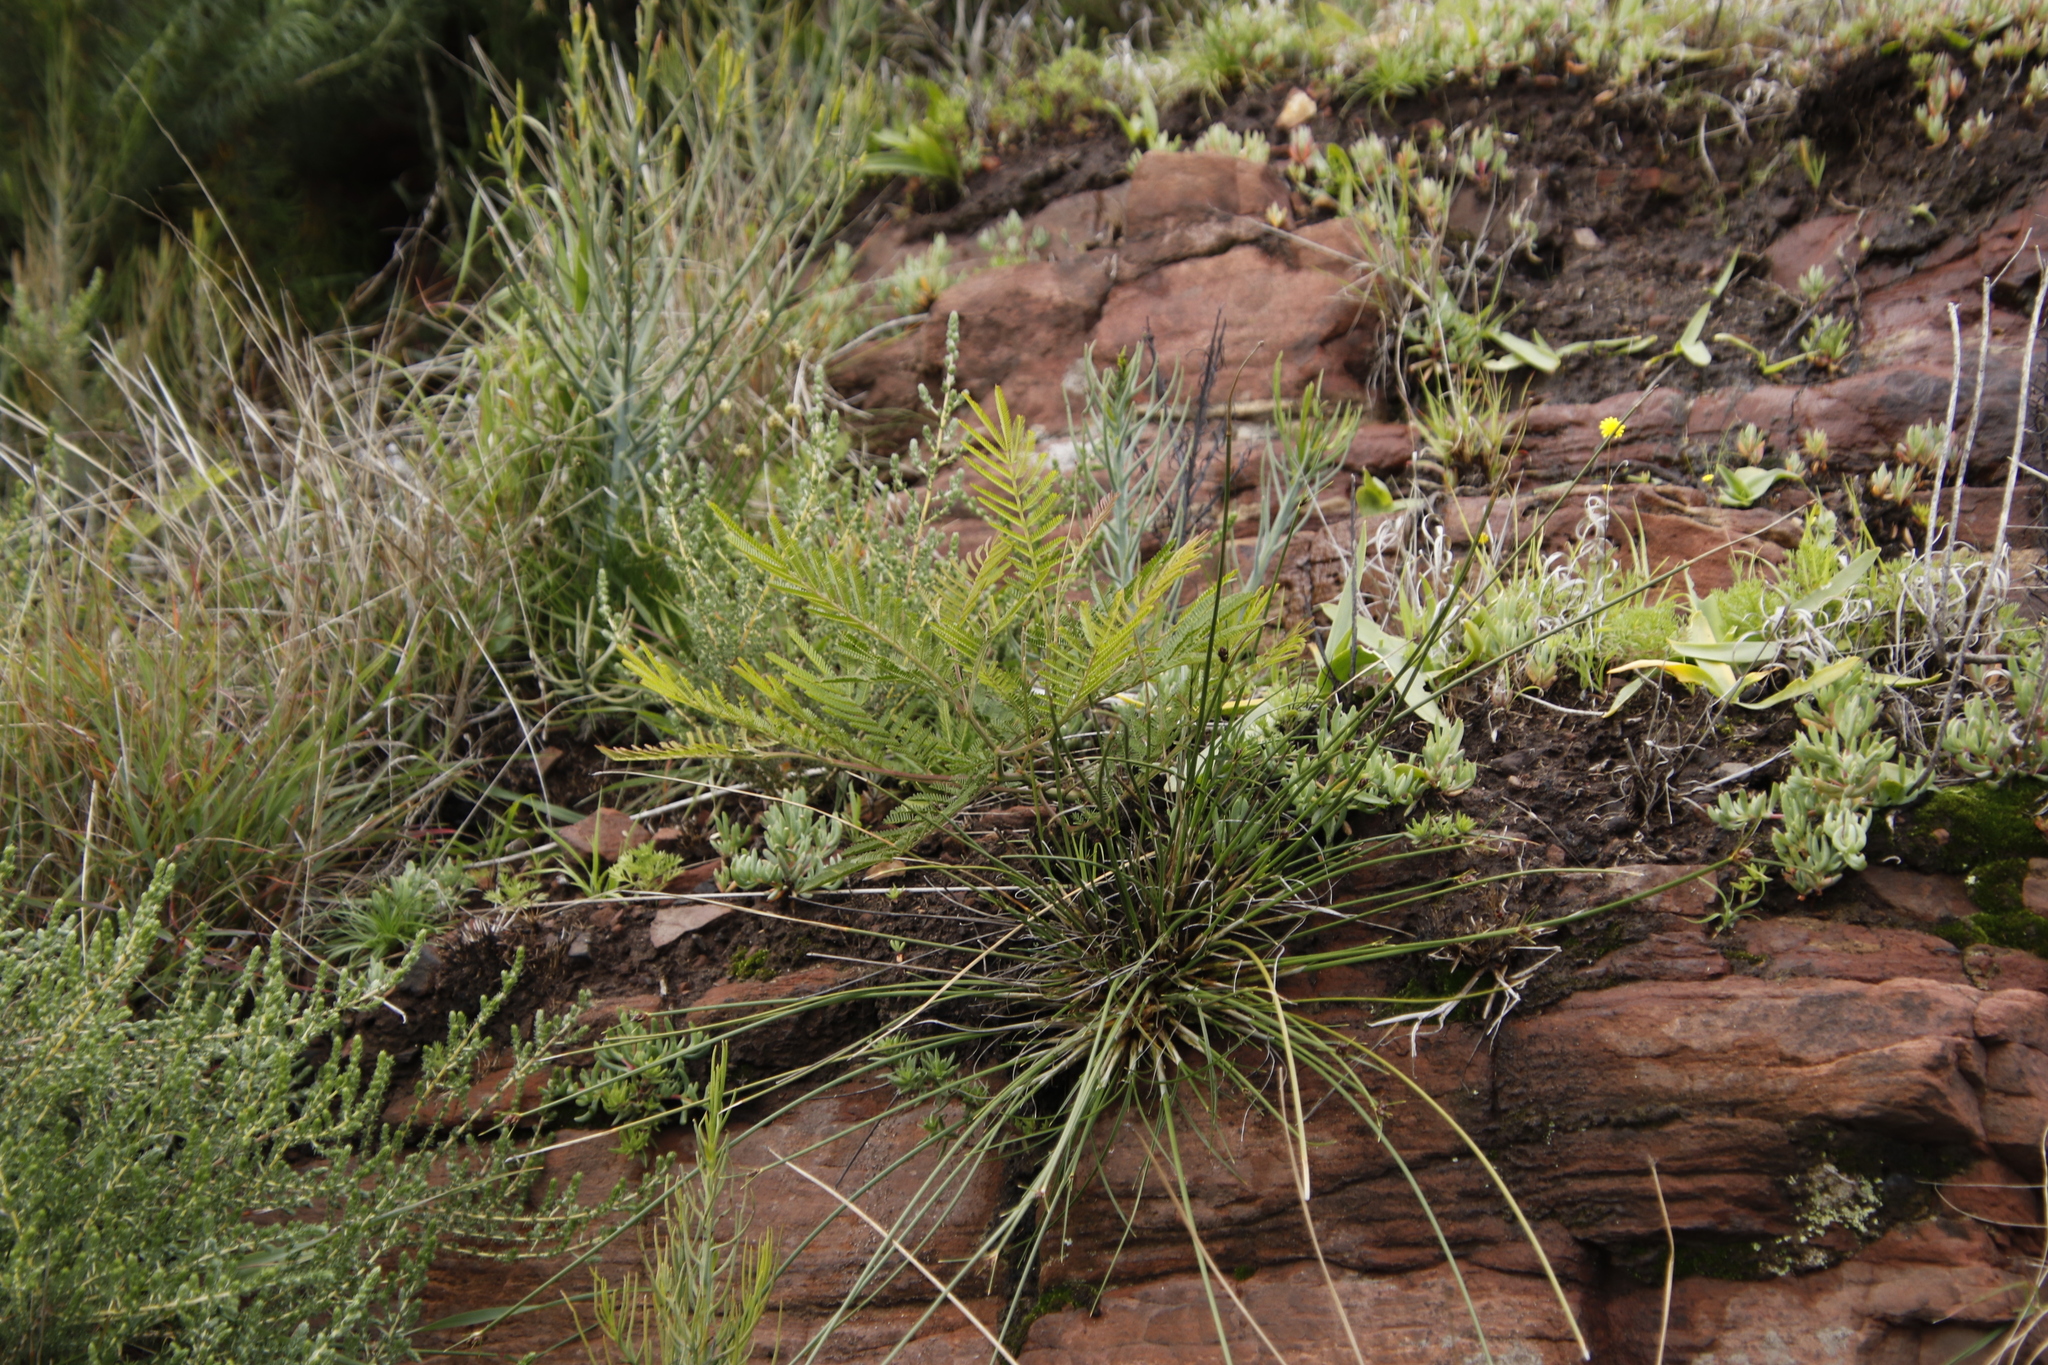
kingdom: Plantae
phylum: Tracheophyta
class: Magnoliopsida
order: Fabales
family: Fabaceae
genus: Acacia
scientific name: Acacia mearnsii
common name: Black wattle
